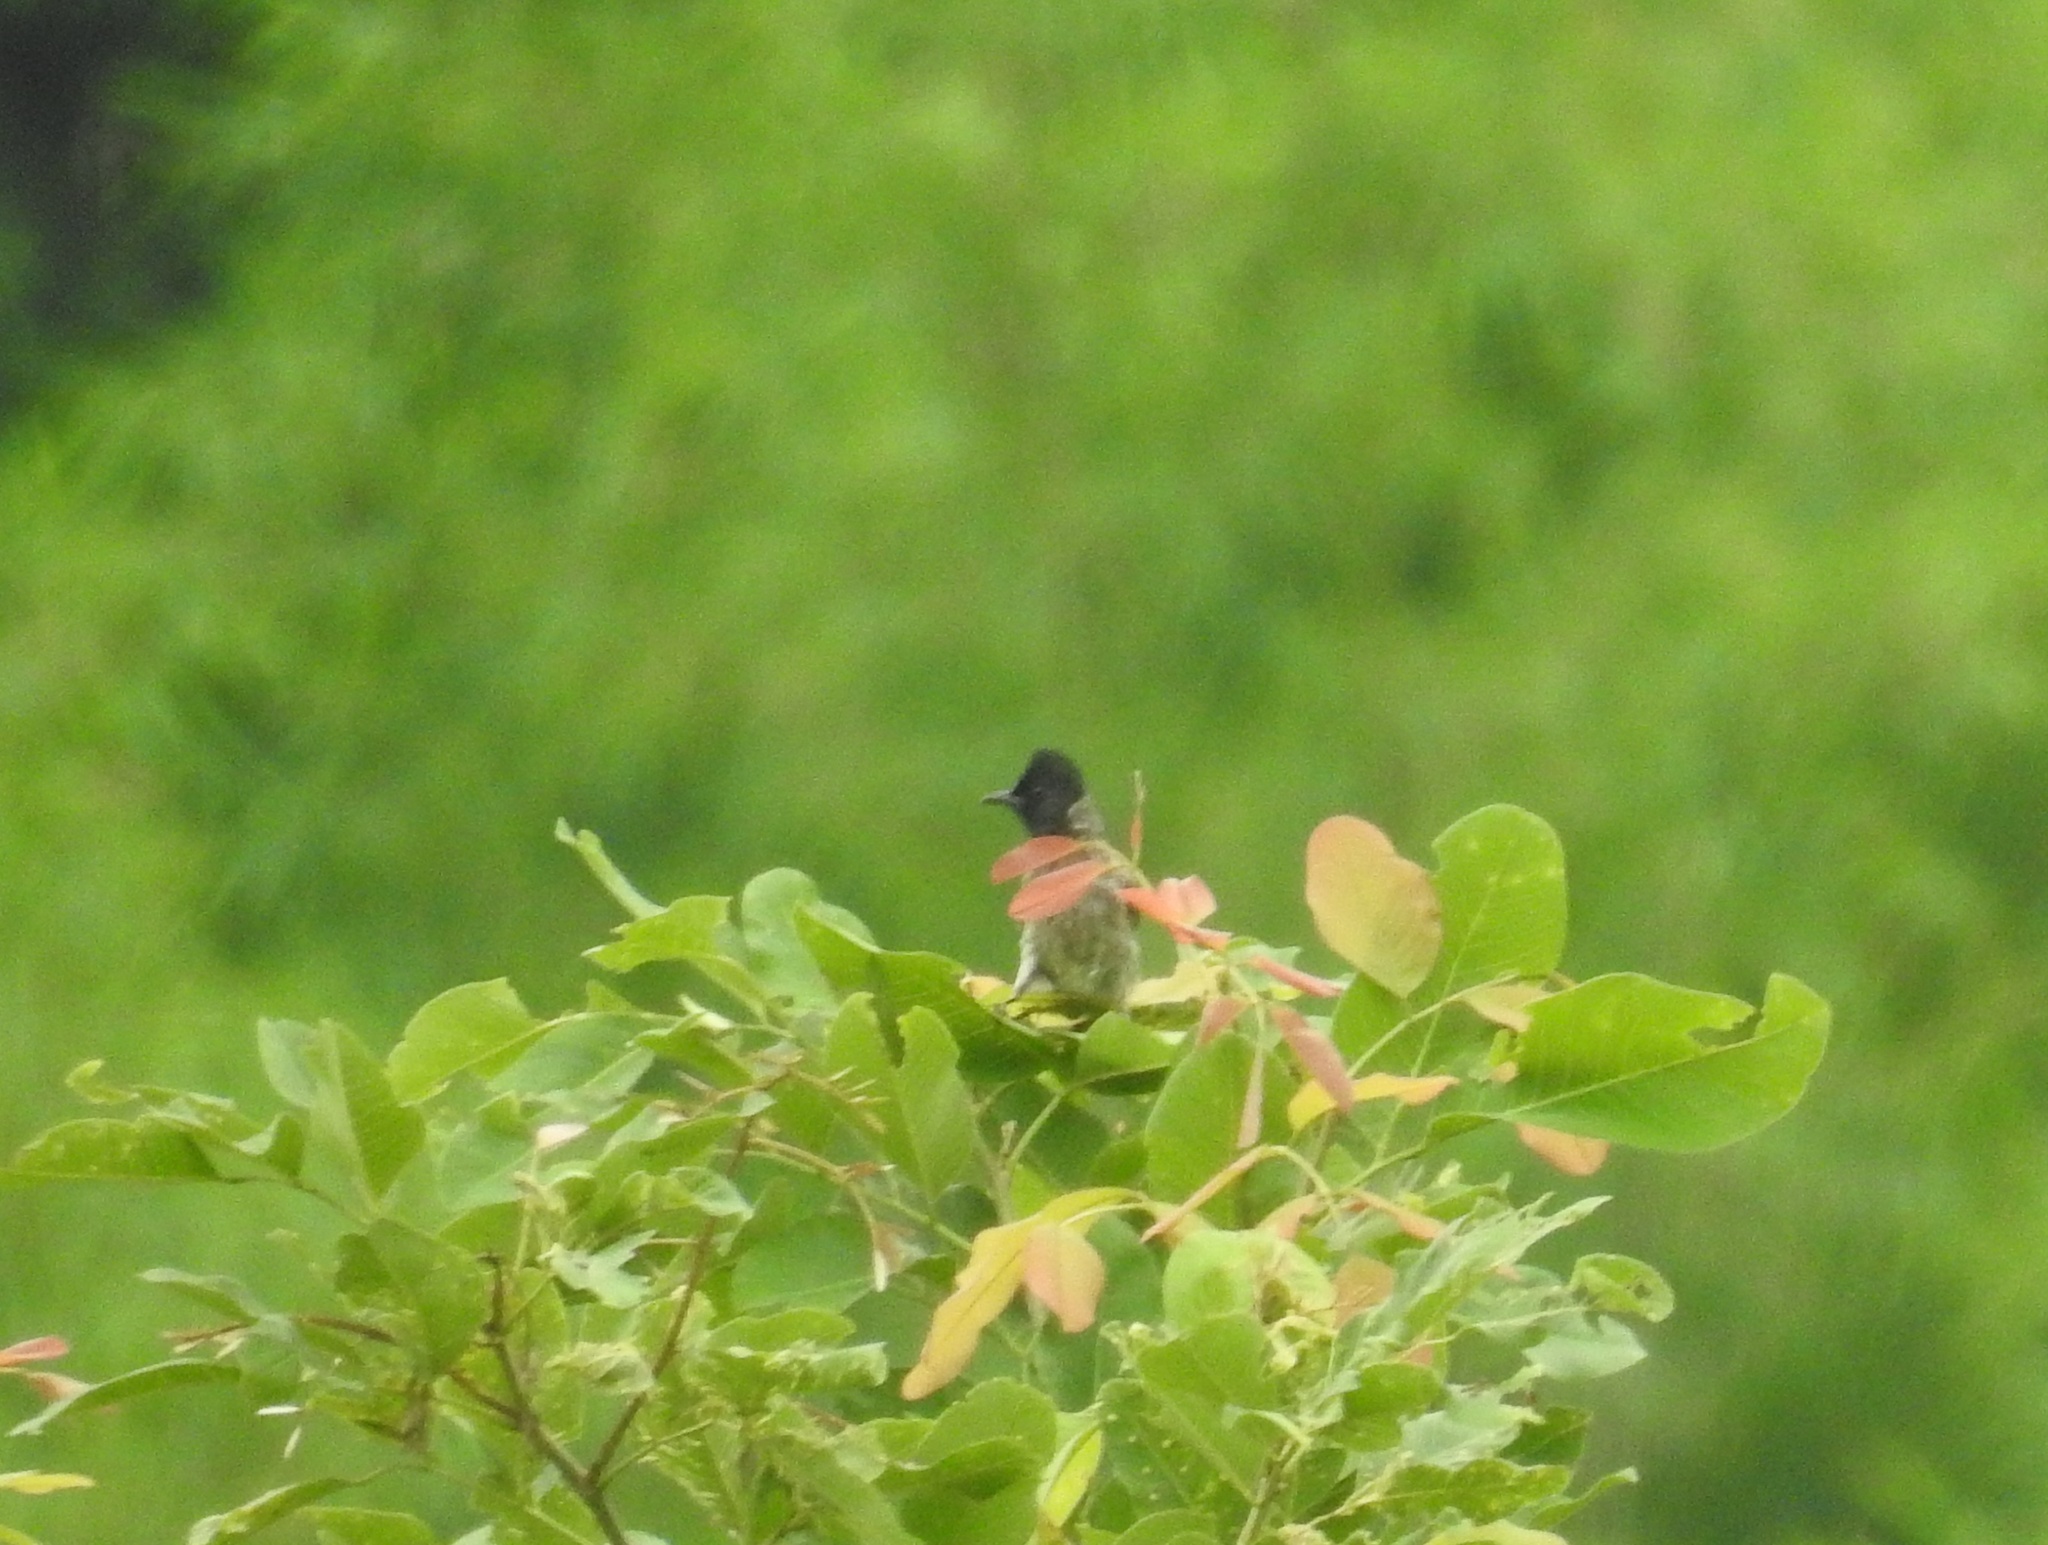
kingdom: Animalia
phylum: Chordata
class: Aves
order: Passeriformes
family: Pycnonotidae
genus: Pycnonotus
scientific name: Pycnonotus cafer
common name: Red-vented bulbul
